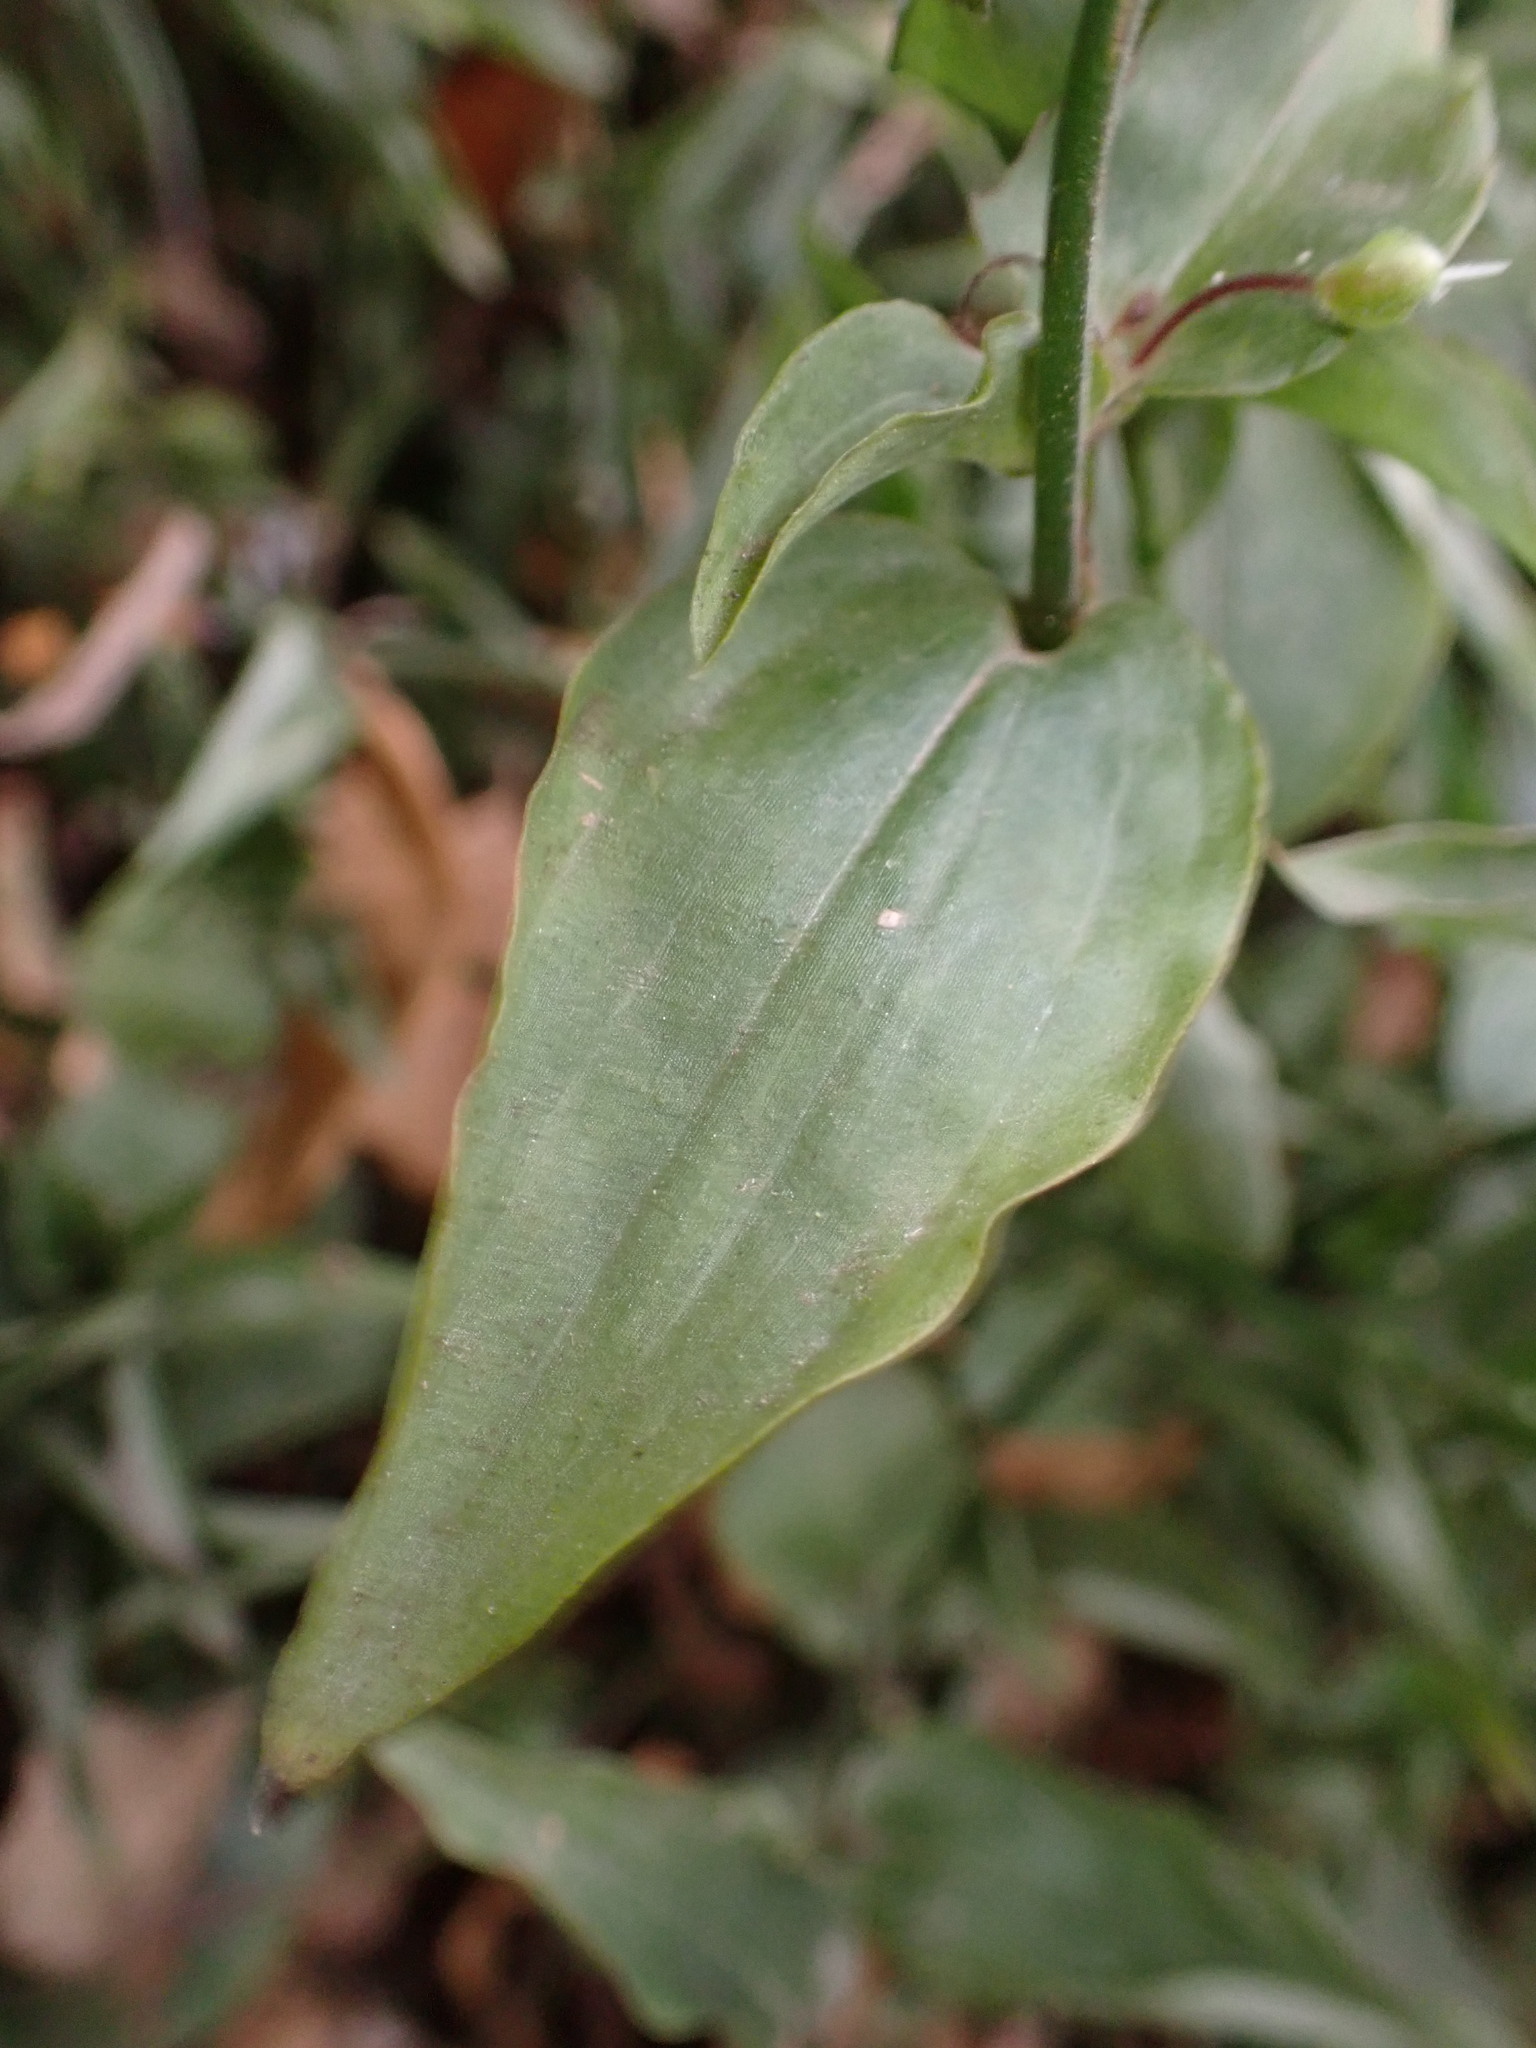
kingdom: Plantae
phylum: Tracheophyta
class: Liliopsida
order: Commelinales
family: Commelinaceae
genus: Tradescantia
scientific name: Tradescantia fluminensis
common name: Wandering-jew
